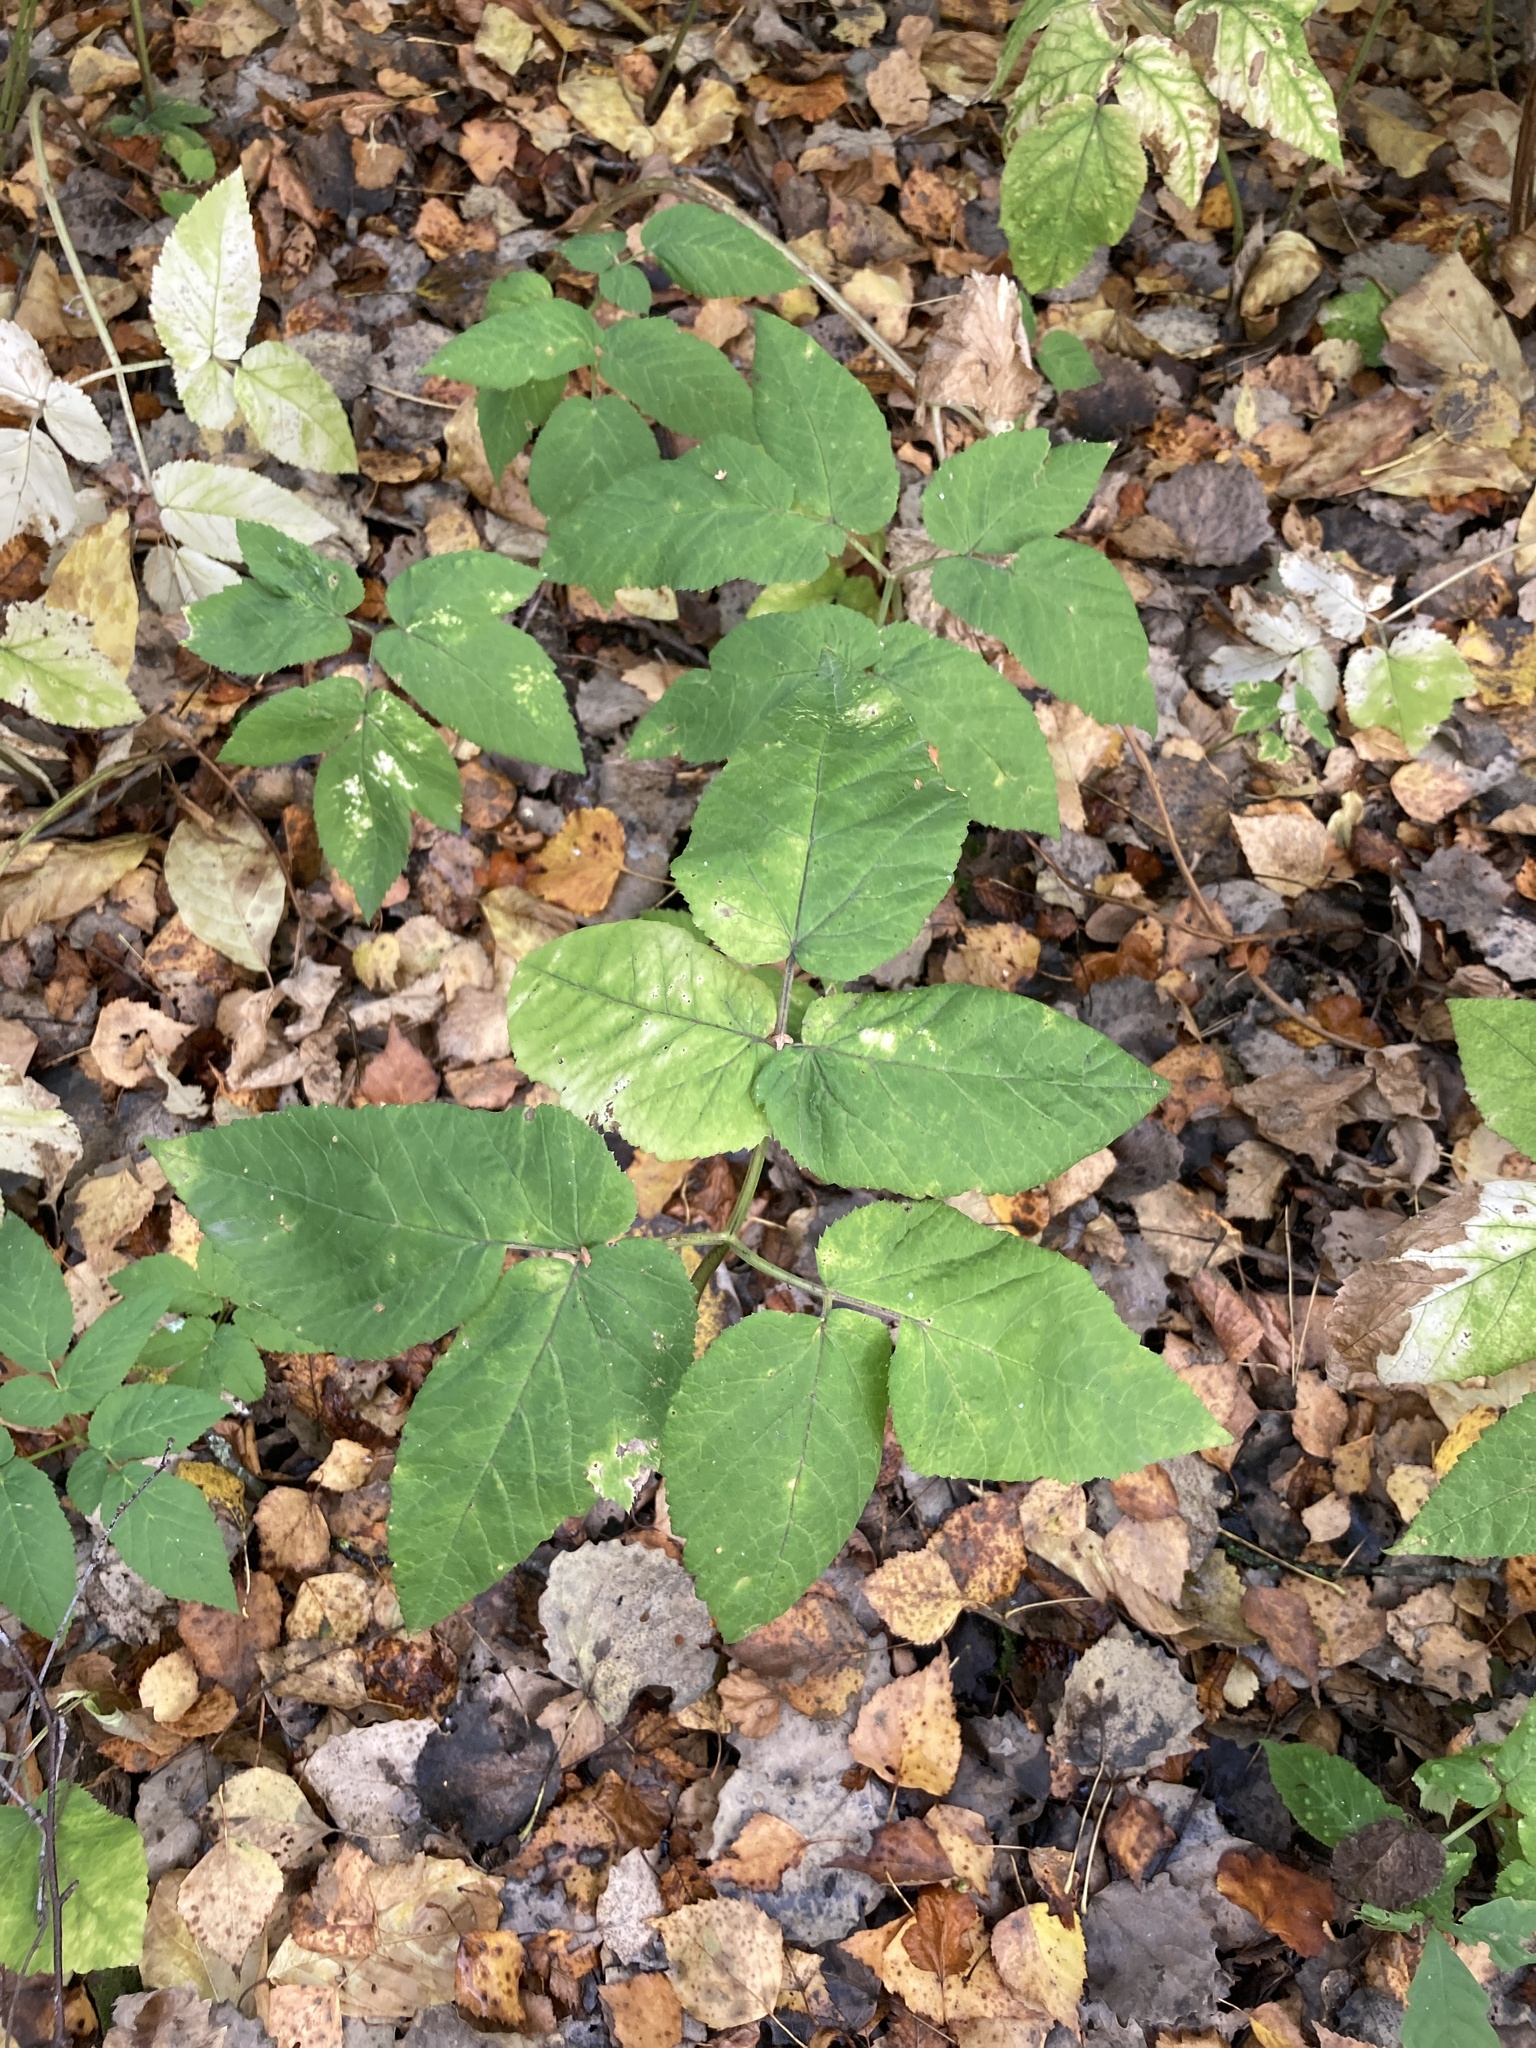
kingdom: Plantae
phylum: Tracheophyta
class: Magnoliopsida
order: Apiales
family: Apiaceae
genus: Aegopodium
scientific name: Aegopodium podagraria
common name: Ground-elder
